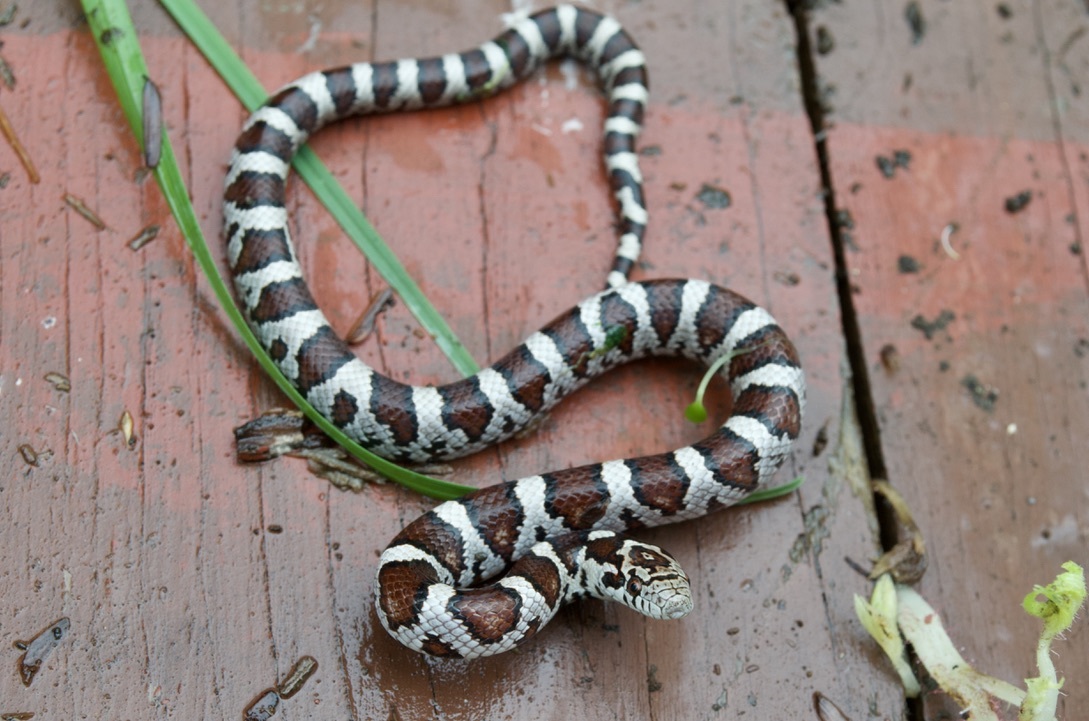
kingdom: Animalia
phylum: Chordata
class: Squamata
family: Colubridae
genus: Lampropeltis
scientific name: Lampropeltis triangulum
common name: Eastern milksnake
